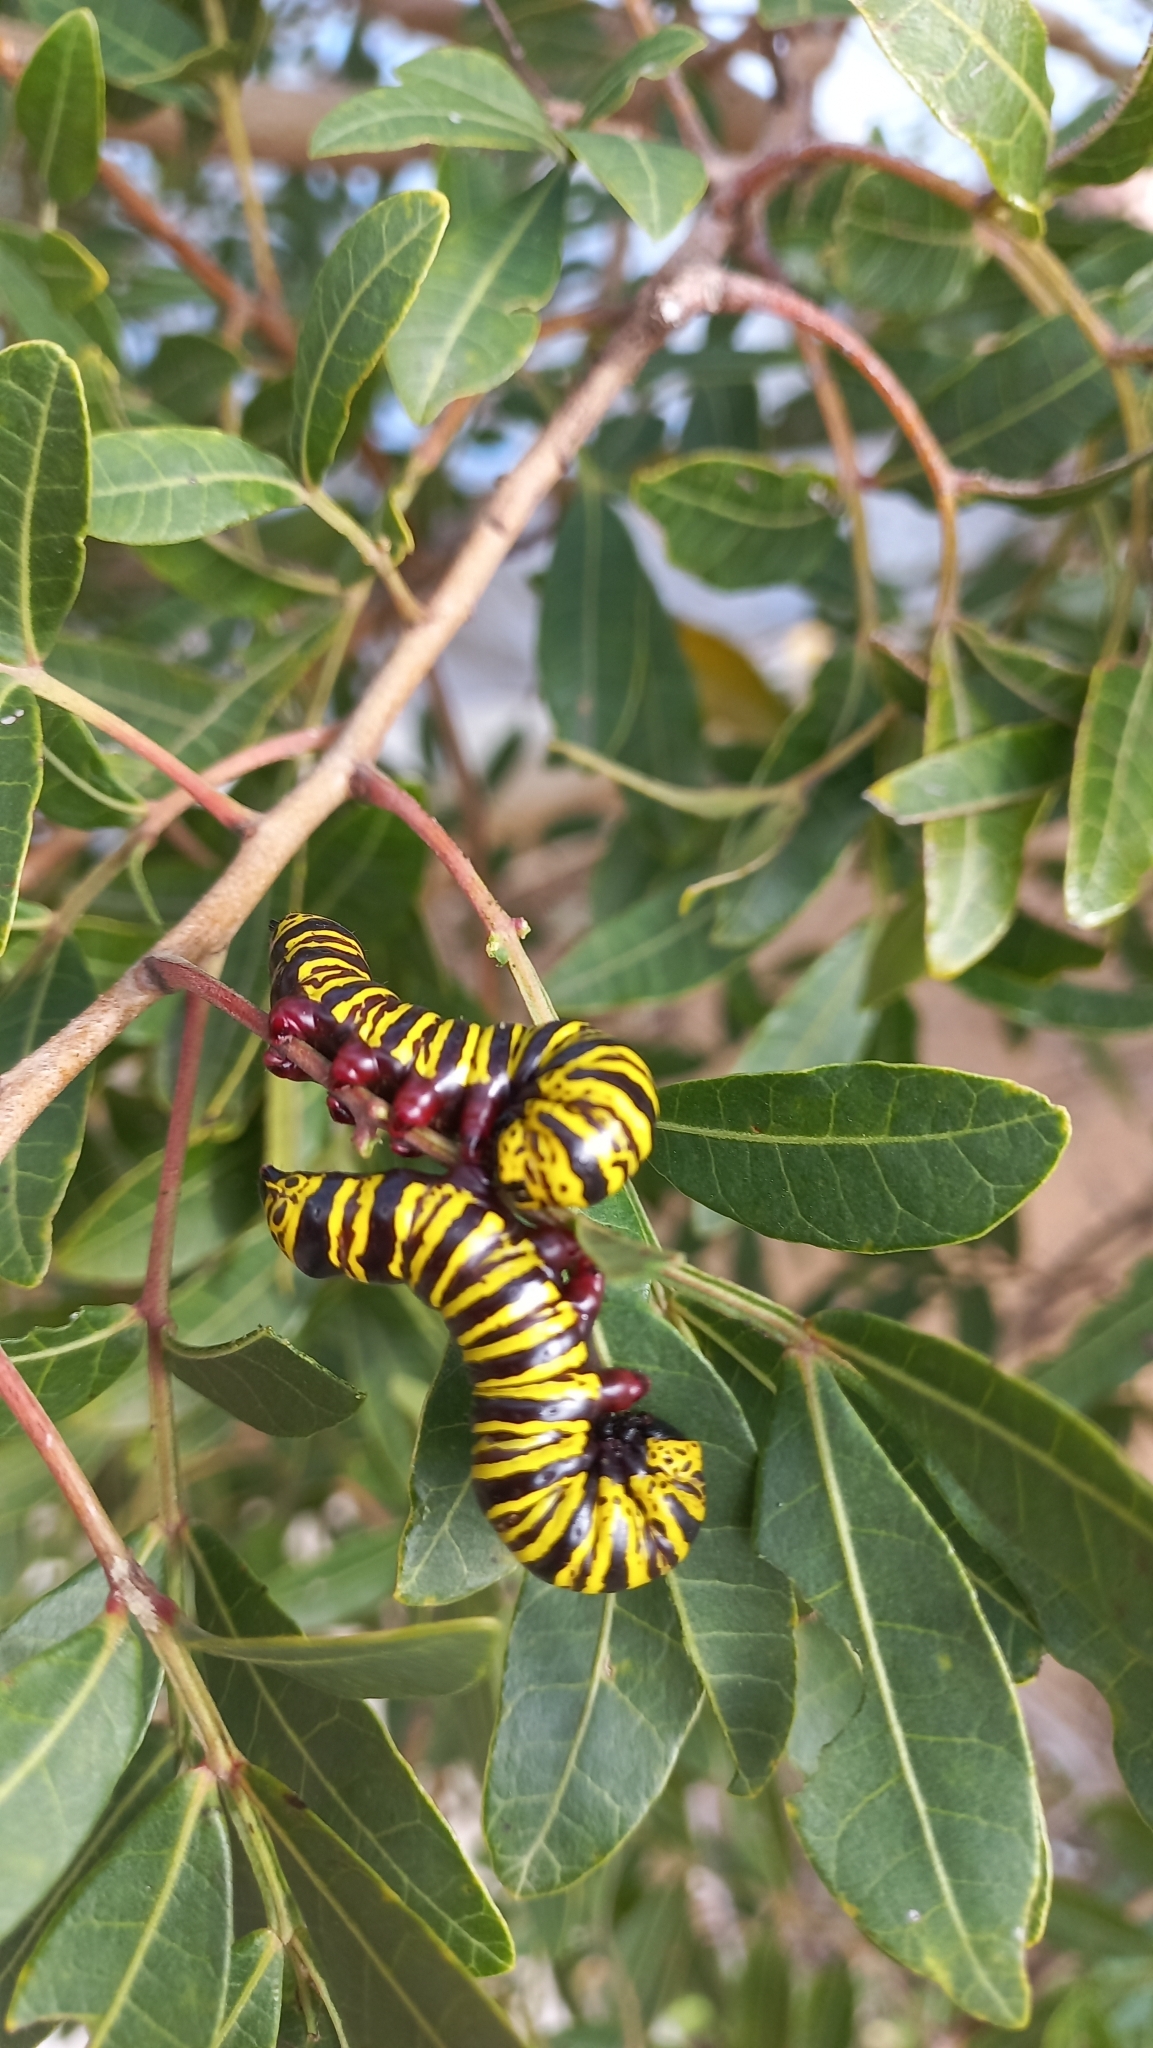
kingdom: Animalia
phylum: Arthropoda
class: Insecta
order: Lepidoptera
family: Notodontidae
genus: Tecmessa
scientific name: Tecmessa elegans
